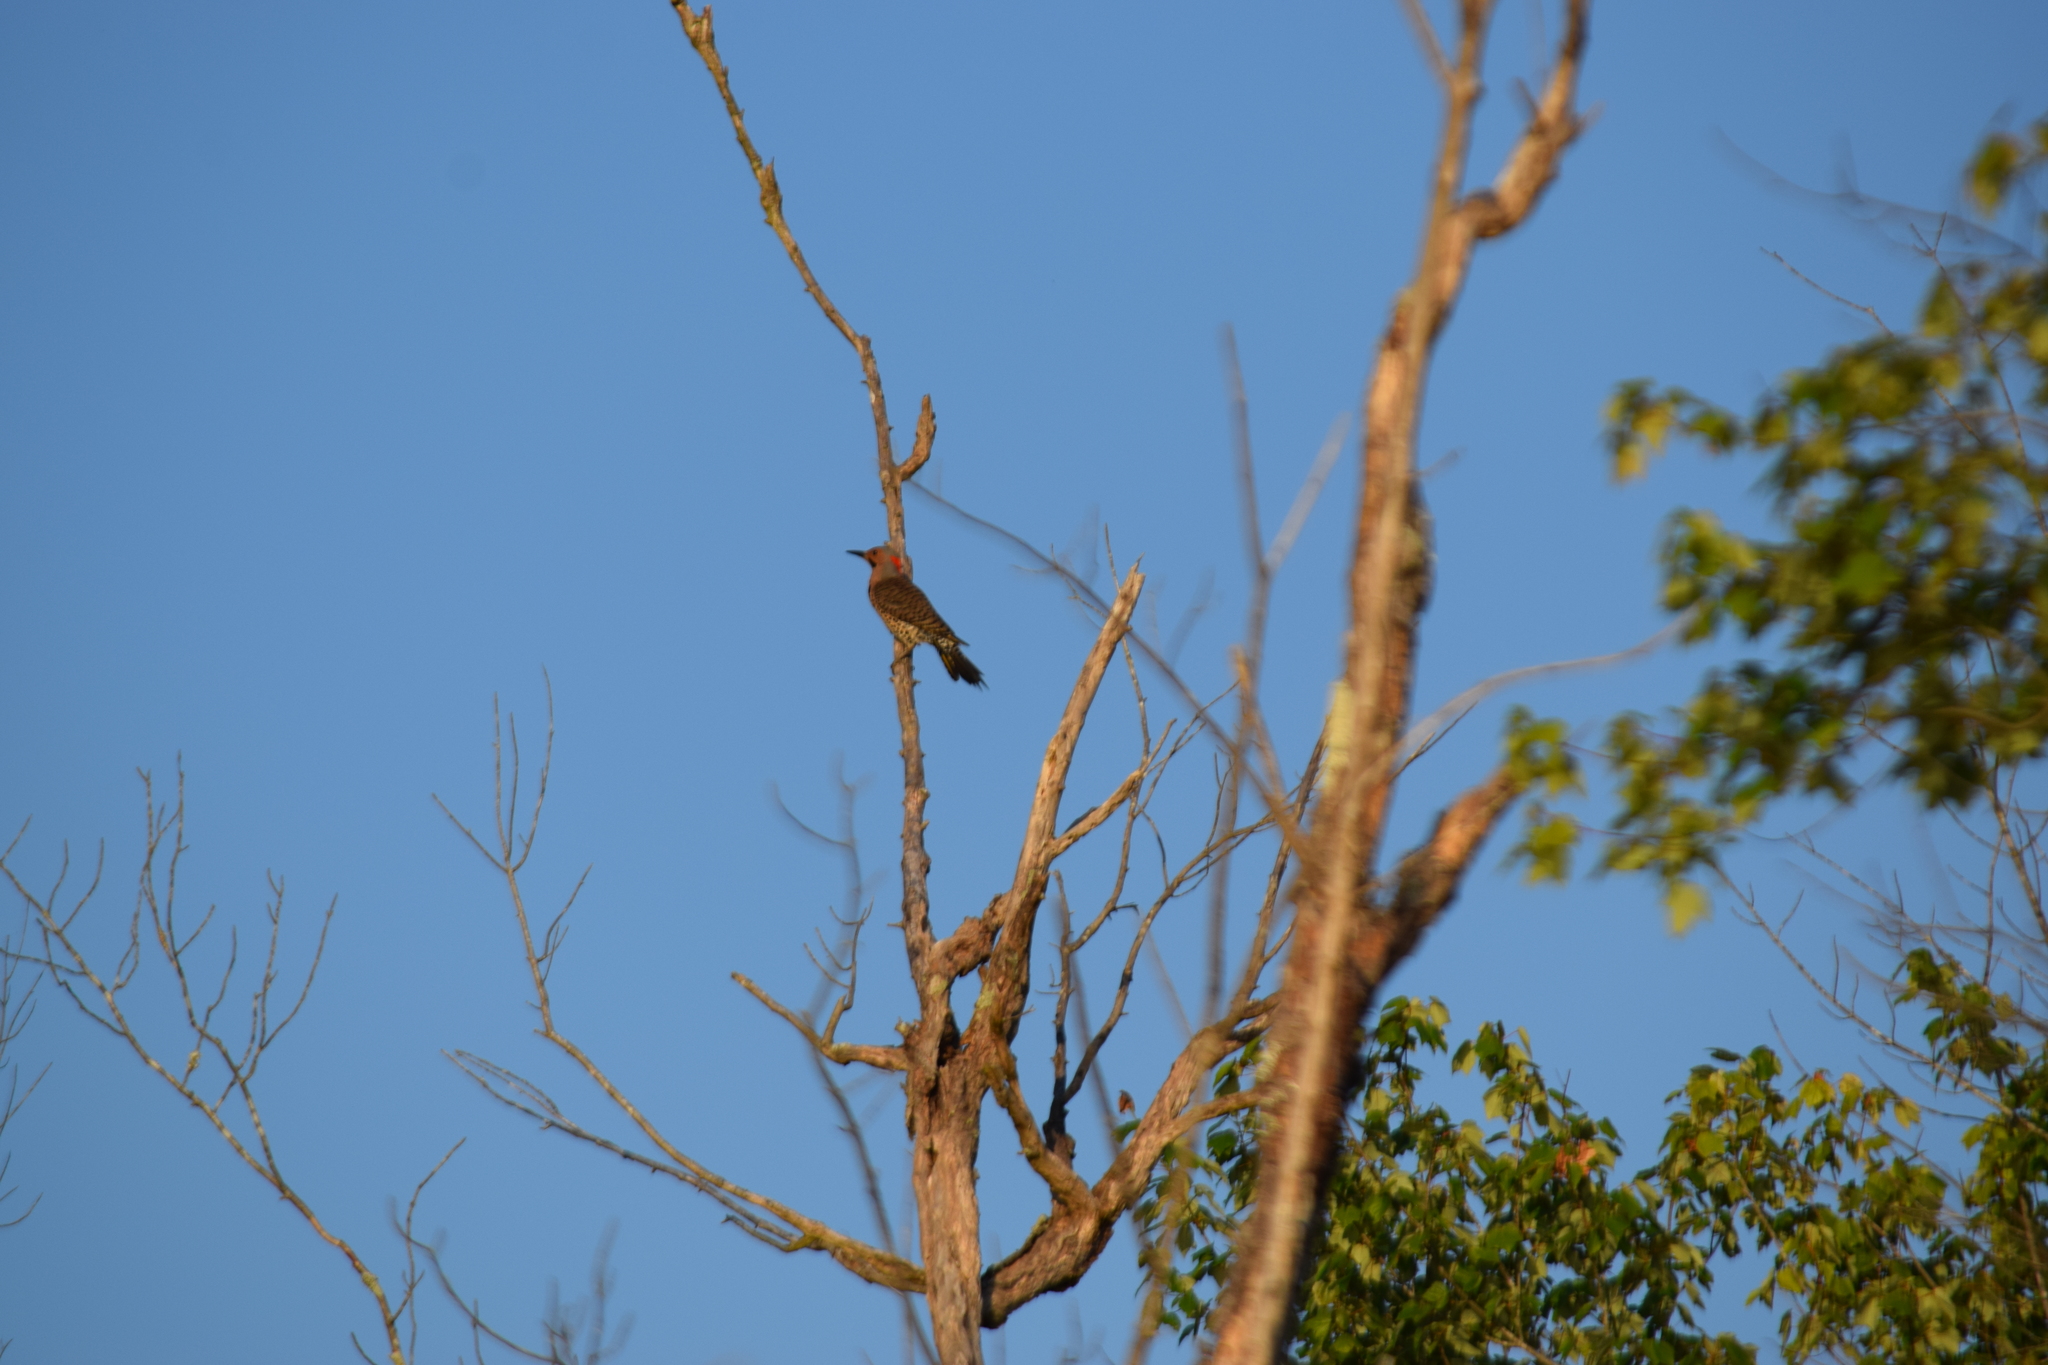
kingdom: Animalia
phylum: Chordata
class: Aves
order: Piciformes
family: Picidae
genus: Colaptes
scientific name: Colaptes auratus
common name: Northern flicker
